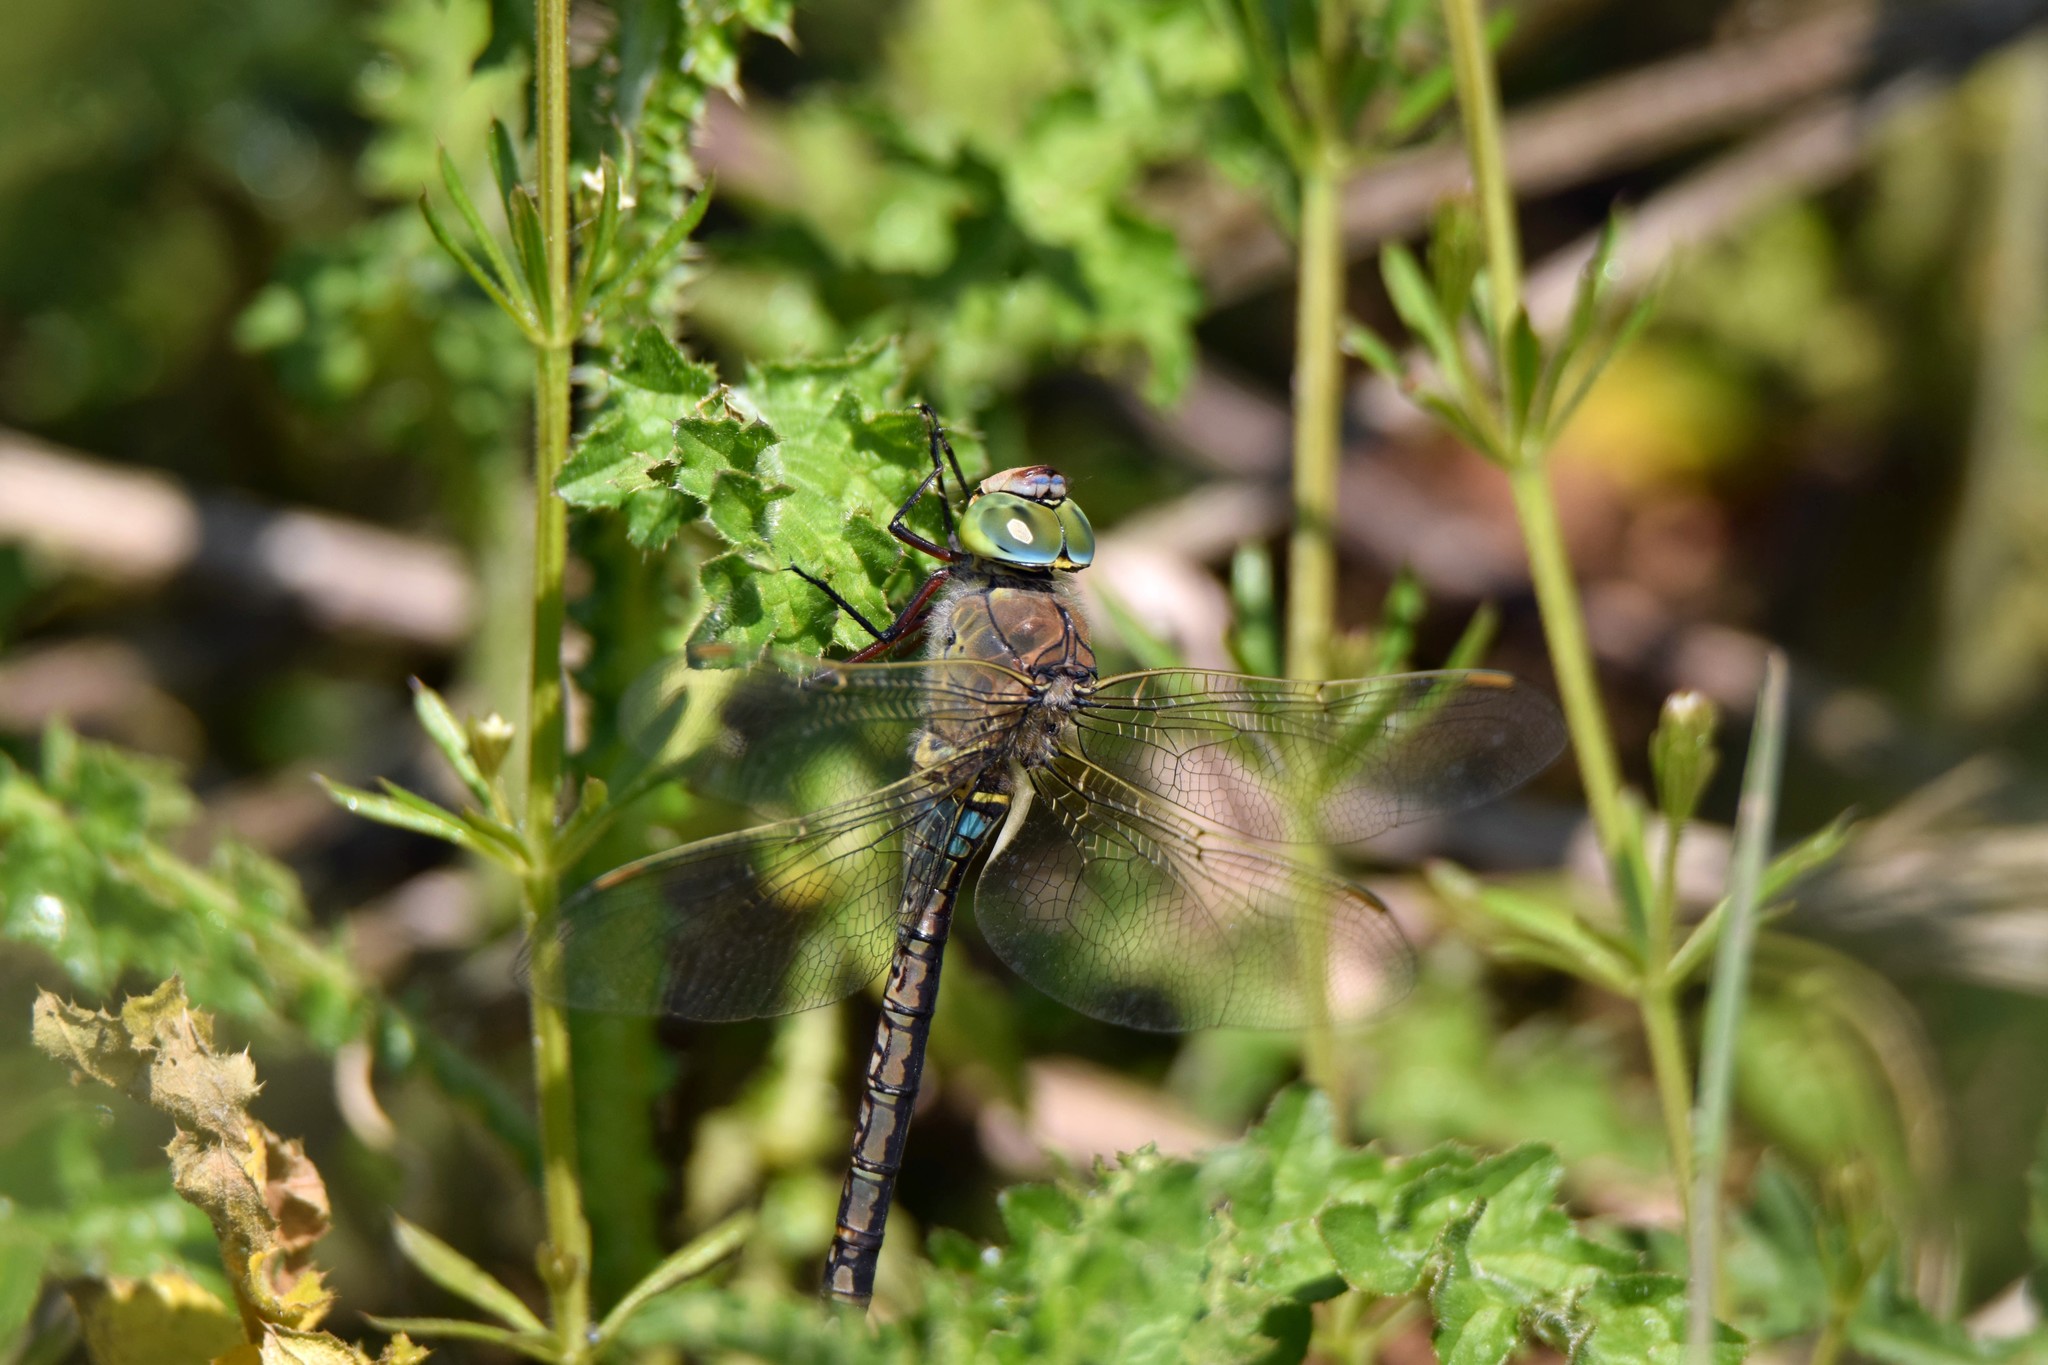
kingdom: Animalia
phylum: Arthropoda
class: Insecta
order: Odonata
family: Aeshnidae
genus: Anax
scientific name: Anax parthenope
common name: Lesser emperor
